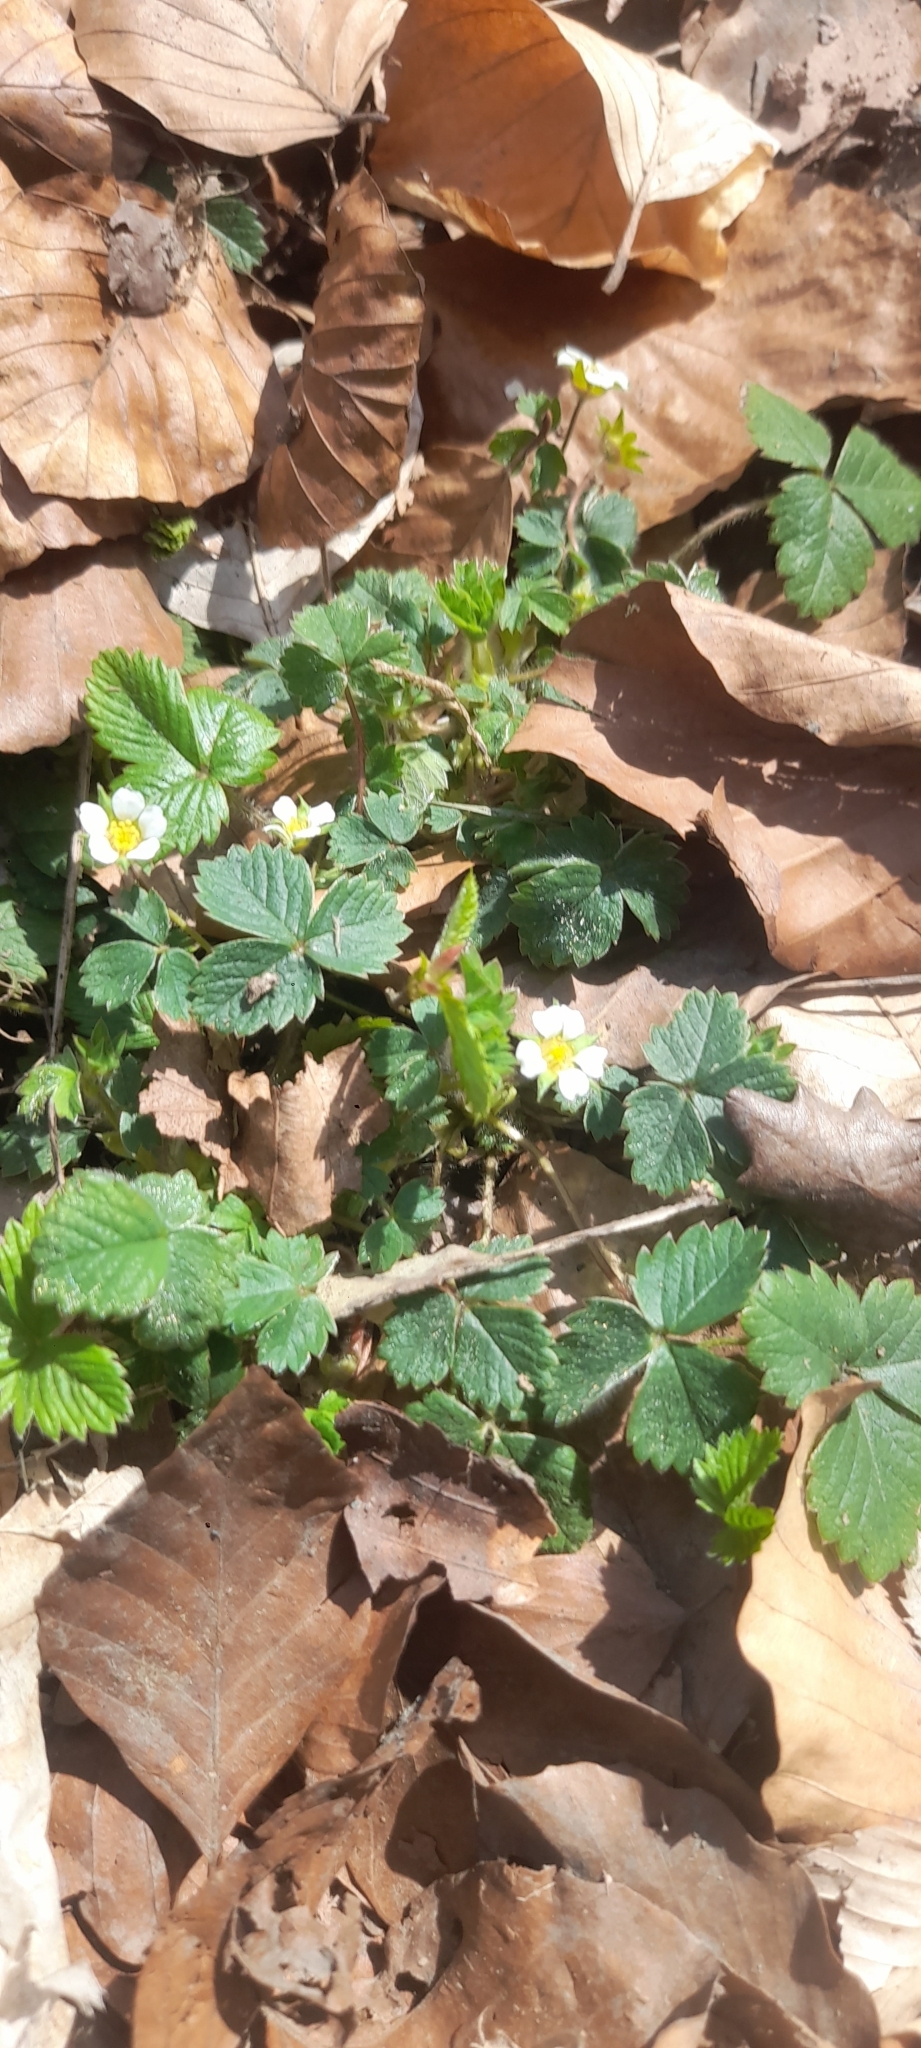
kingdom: Plantae
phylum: Tracheophyta
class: Magnoliopsida
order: Rosales
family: Rosaceae
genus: Potentilla
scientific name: Potentilla sterilis
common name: Barren strawberry
